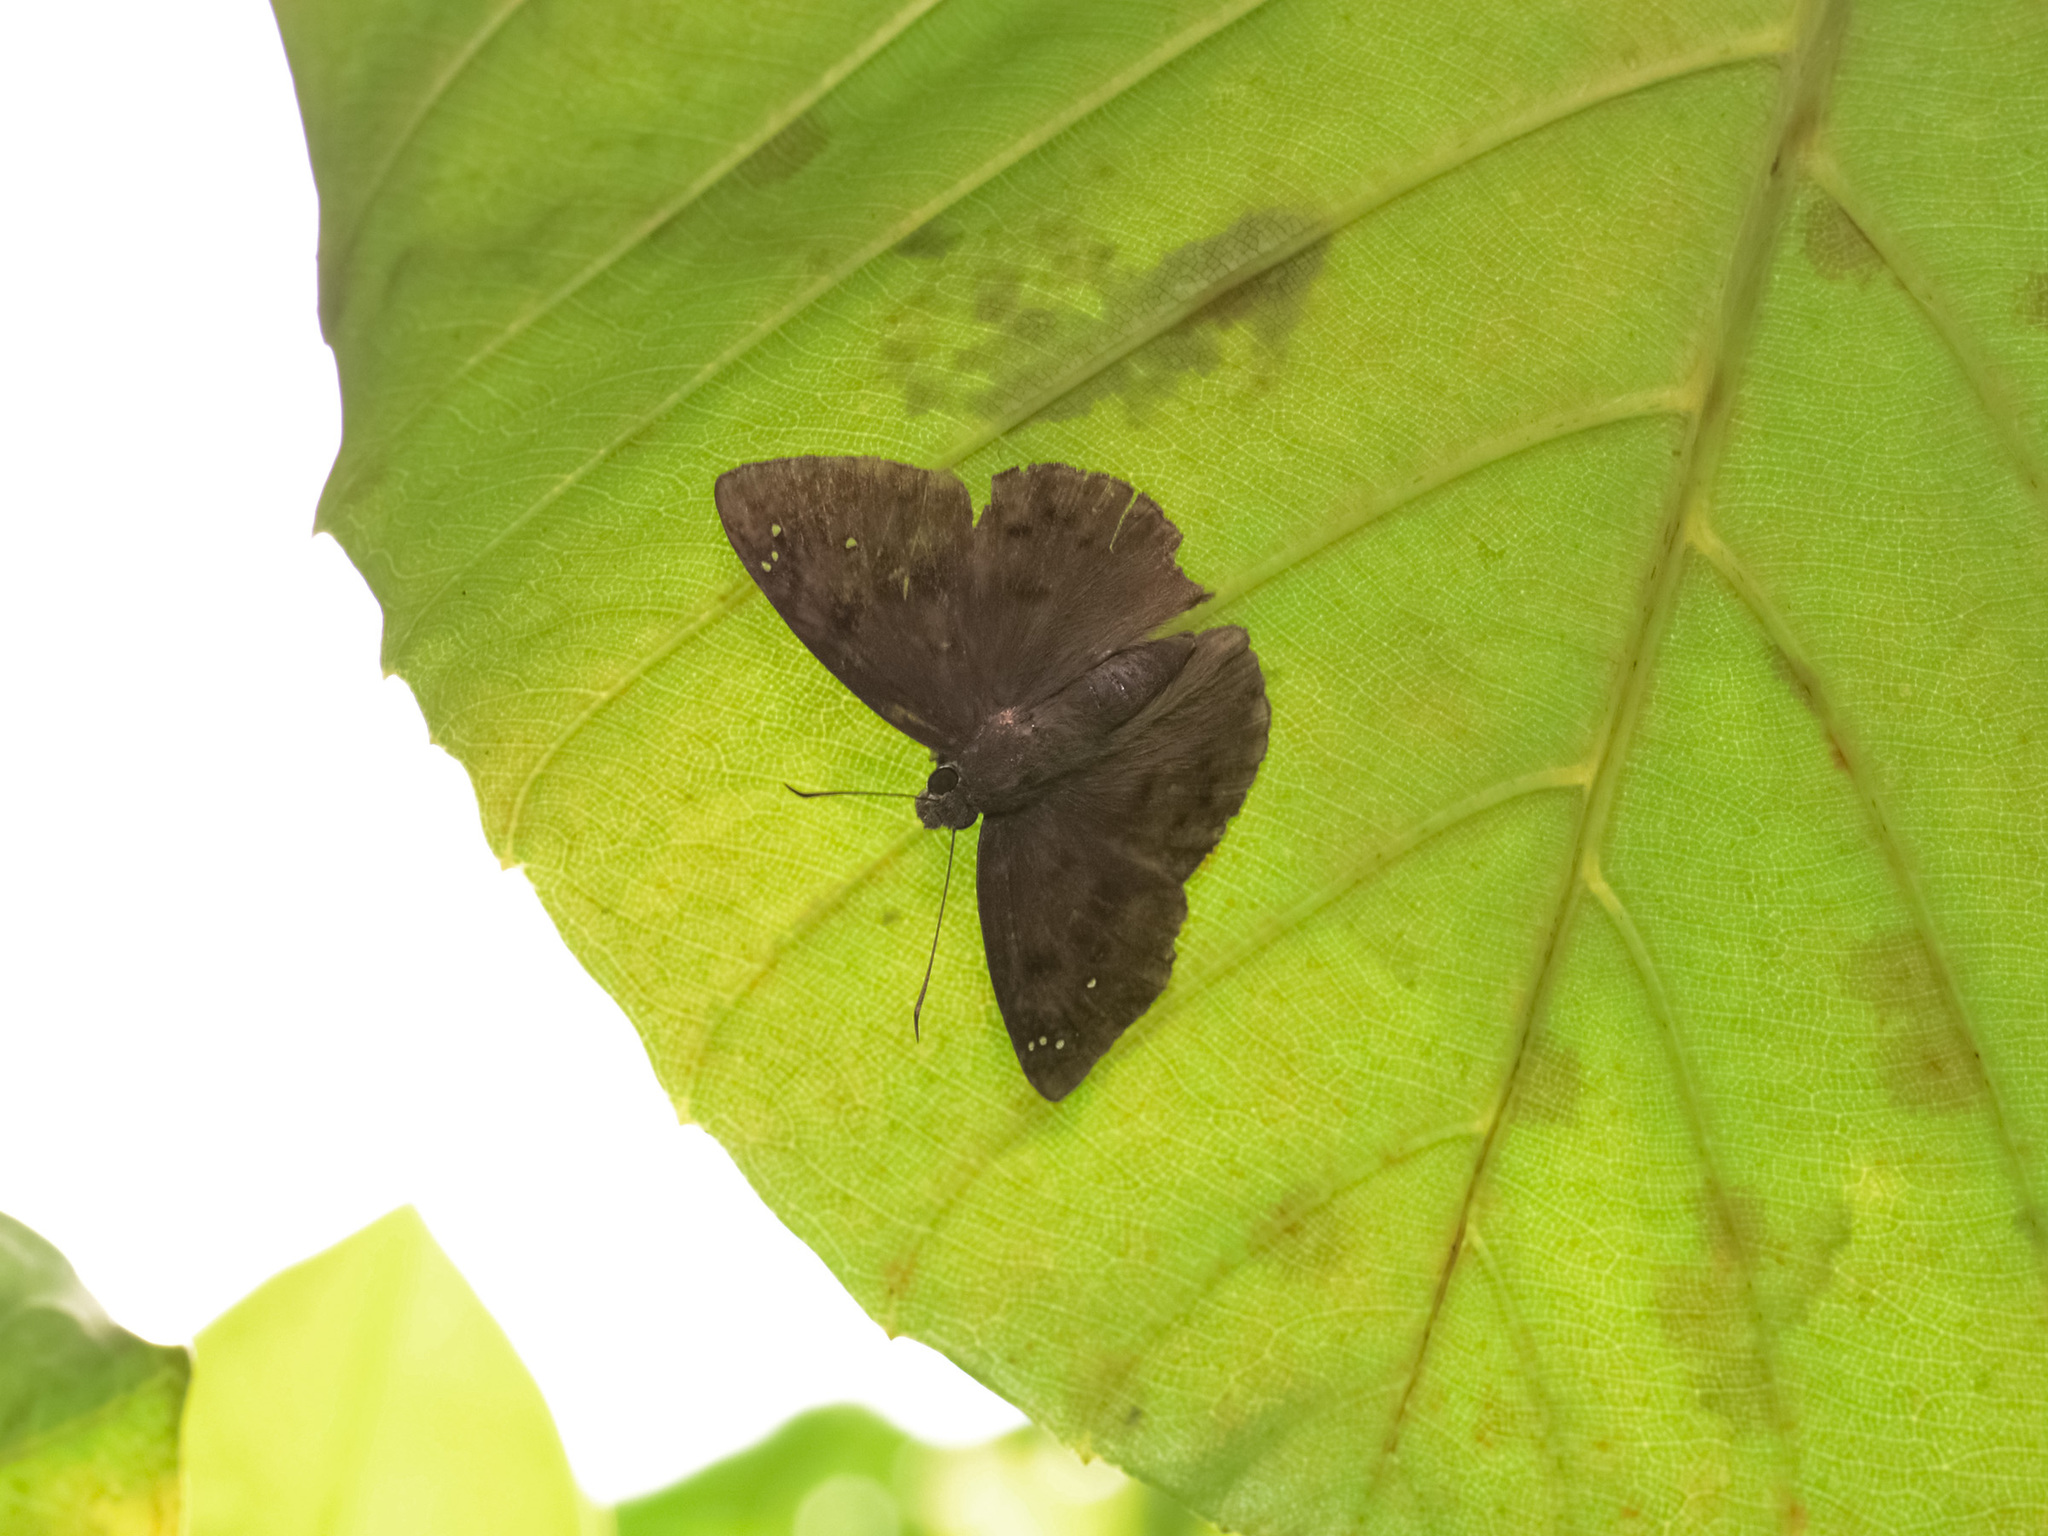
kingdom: Animalia
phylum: Arthropoda
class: Insecta
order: Lepidoptera
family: Hesperiidae
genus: Tagiades
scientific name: Tagiades japetus
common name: Pied flat
